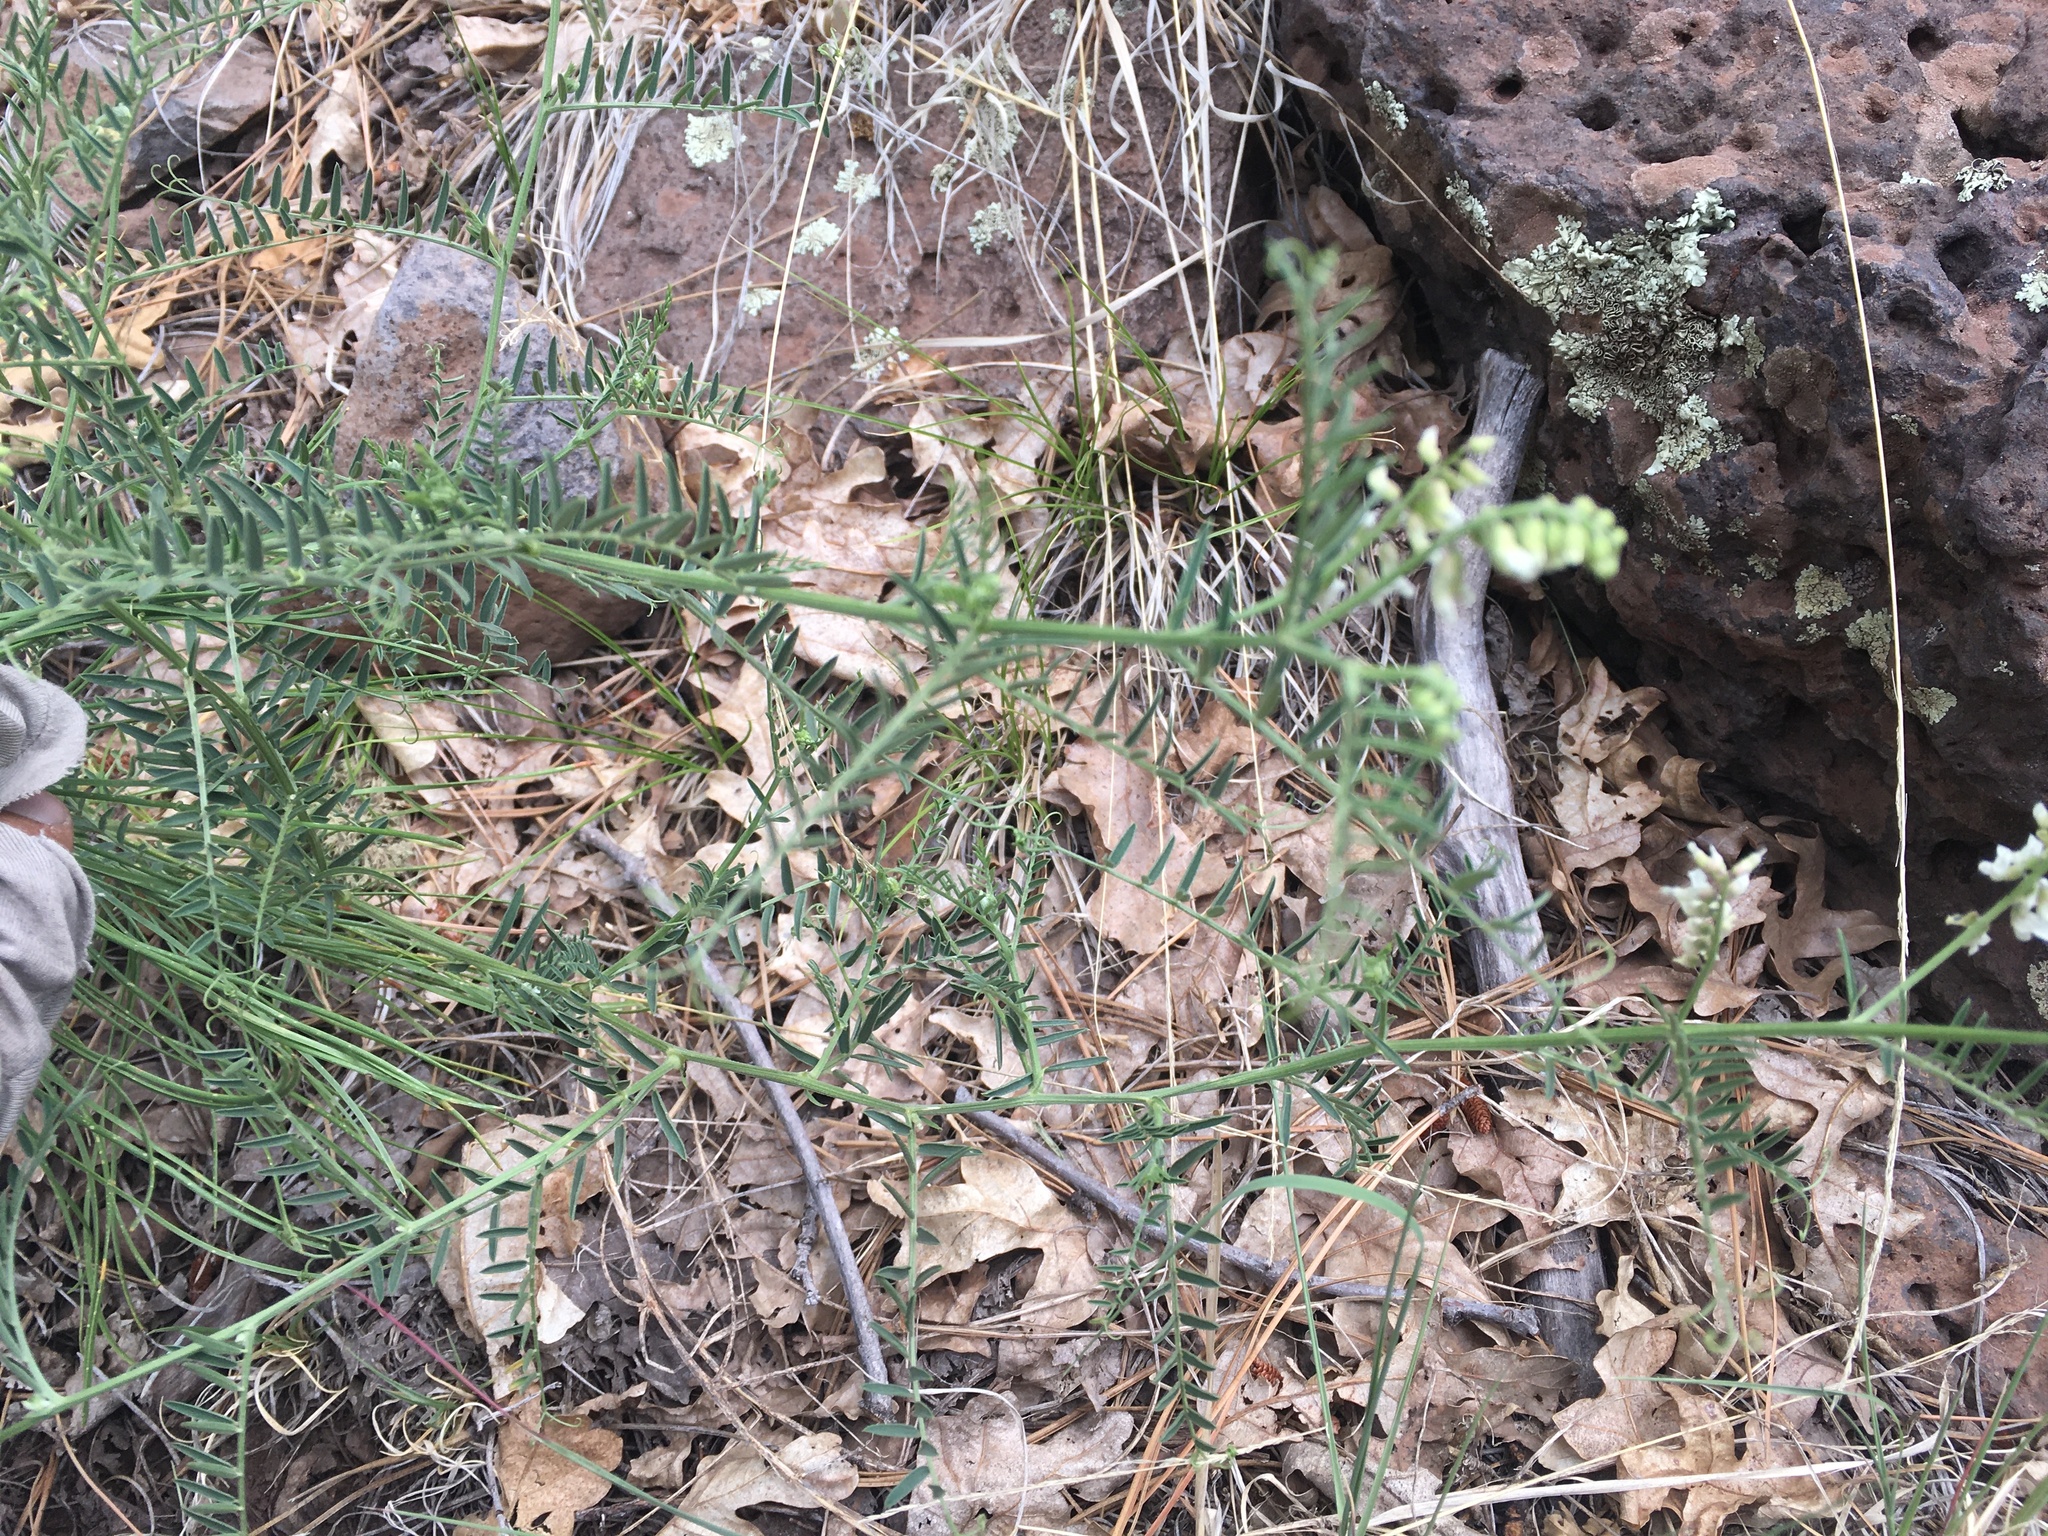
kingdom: Plantae
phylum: Tracheophyta
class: Magnoliopsida
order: Fabales
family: Fabaceae
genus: Vicia
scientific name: Vicia pulchella
